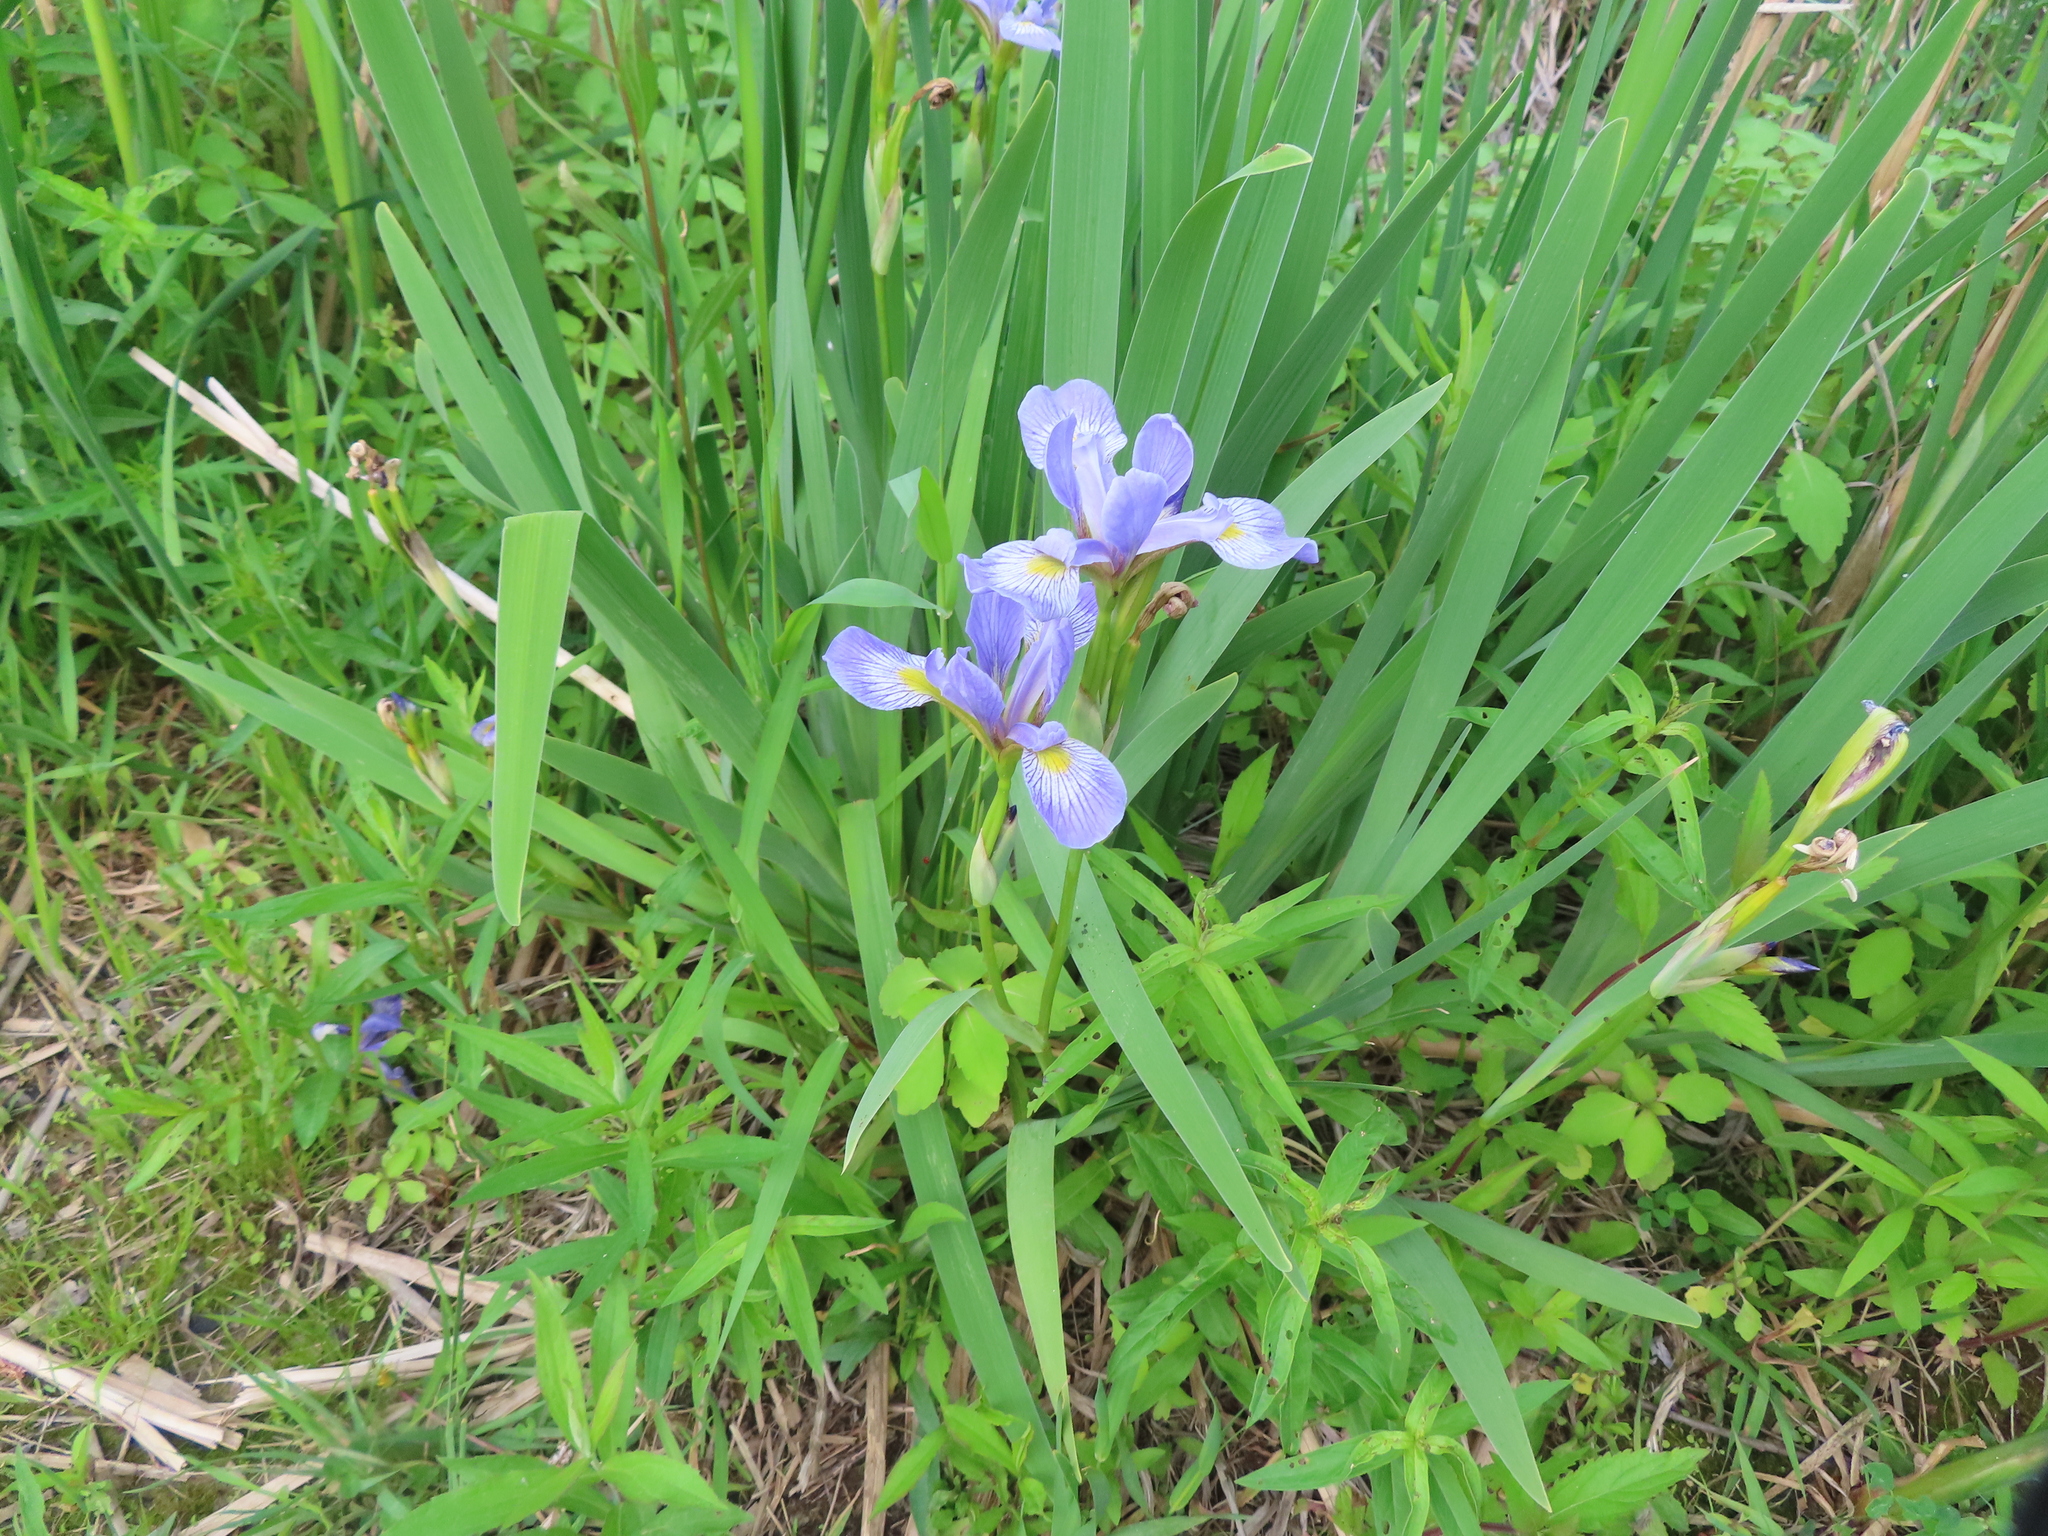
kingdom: Plantae
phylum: Tracheophyta
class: Liliopsida
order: Asparagales
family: Iridaceae
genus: Iris
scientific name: Iris virginica
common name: Southern blue flag
